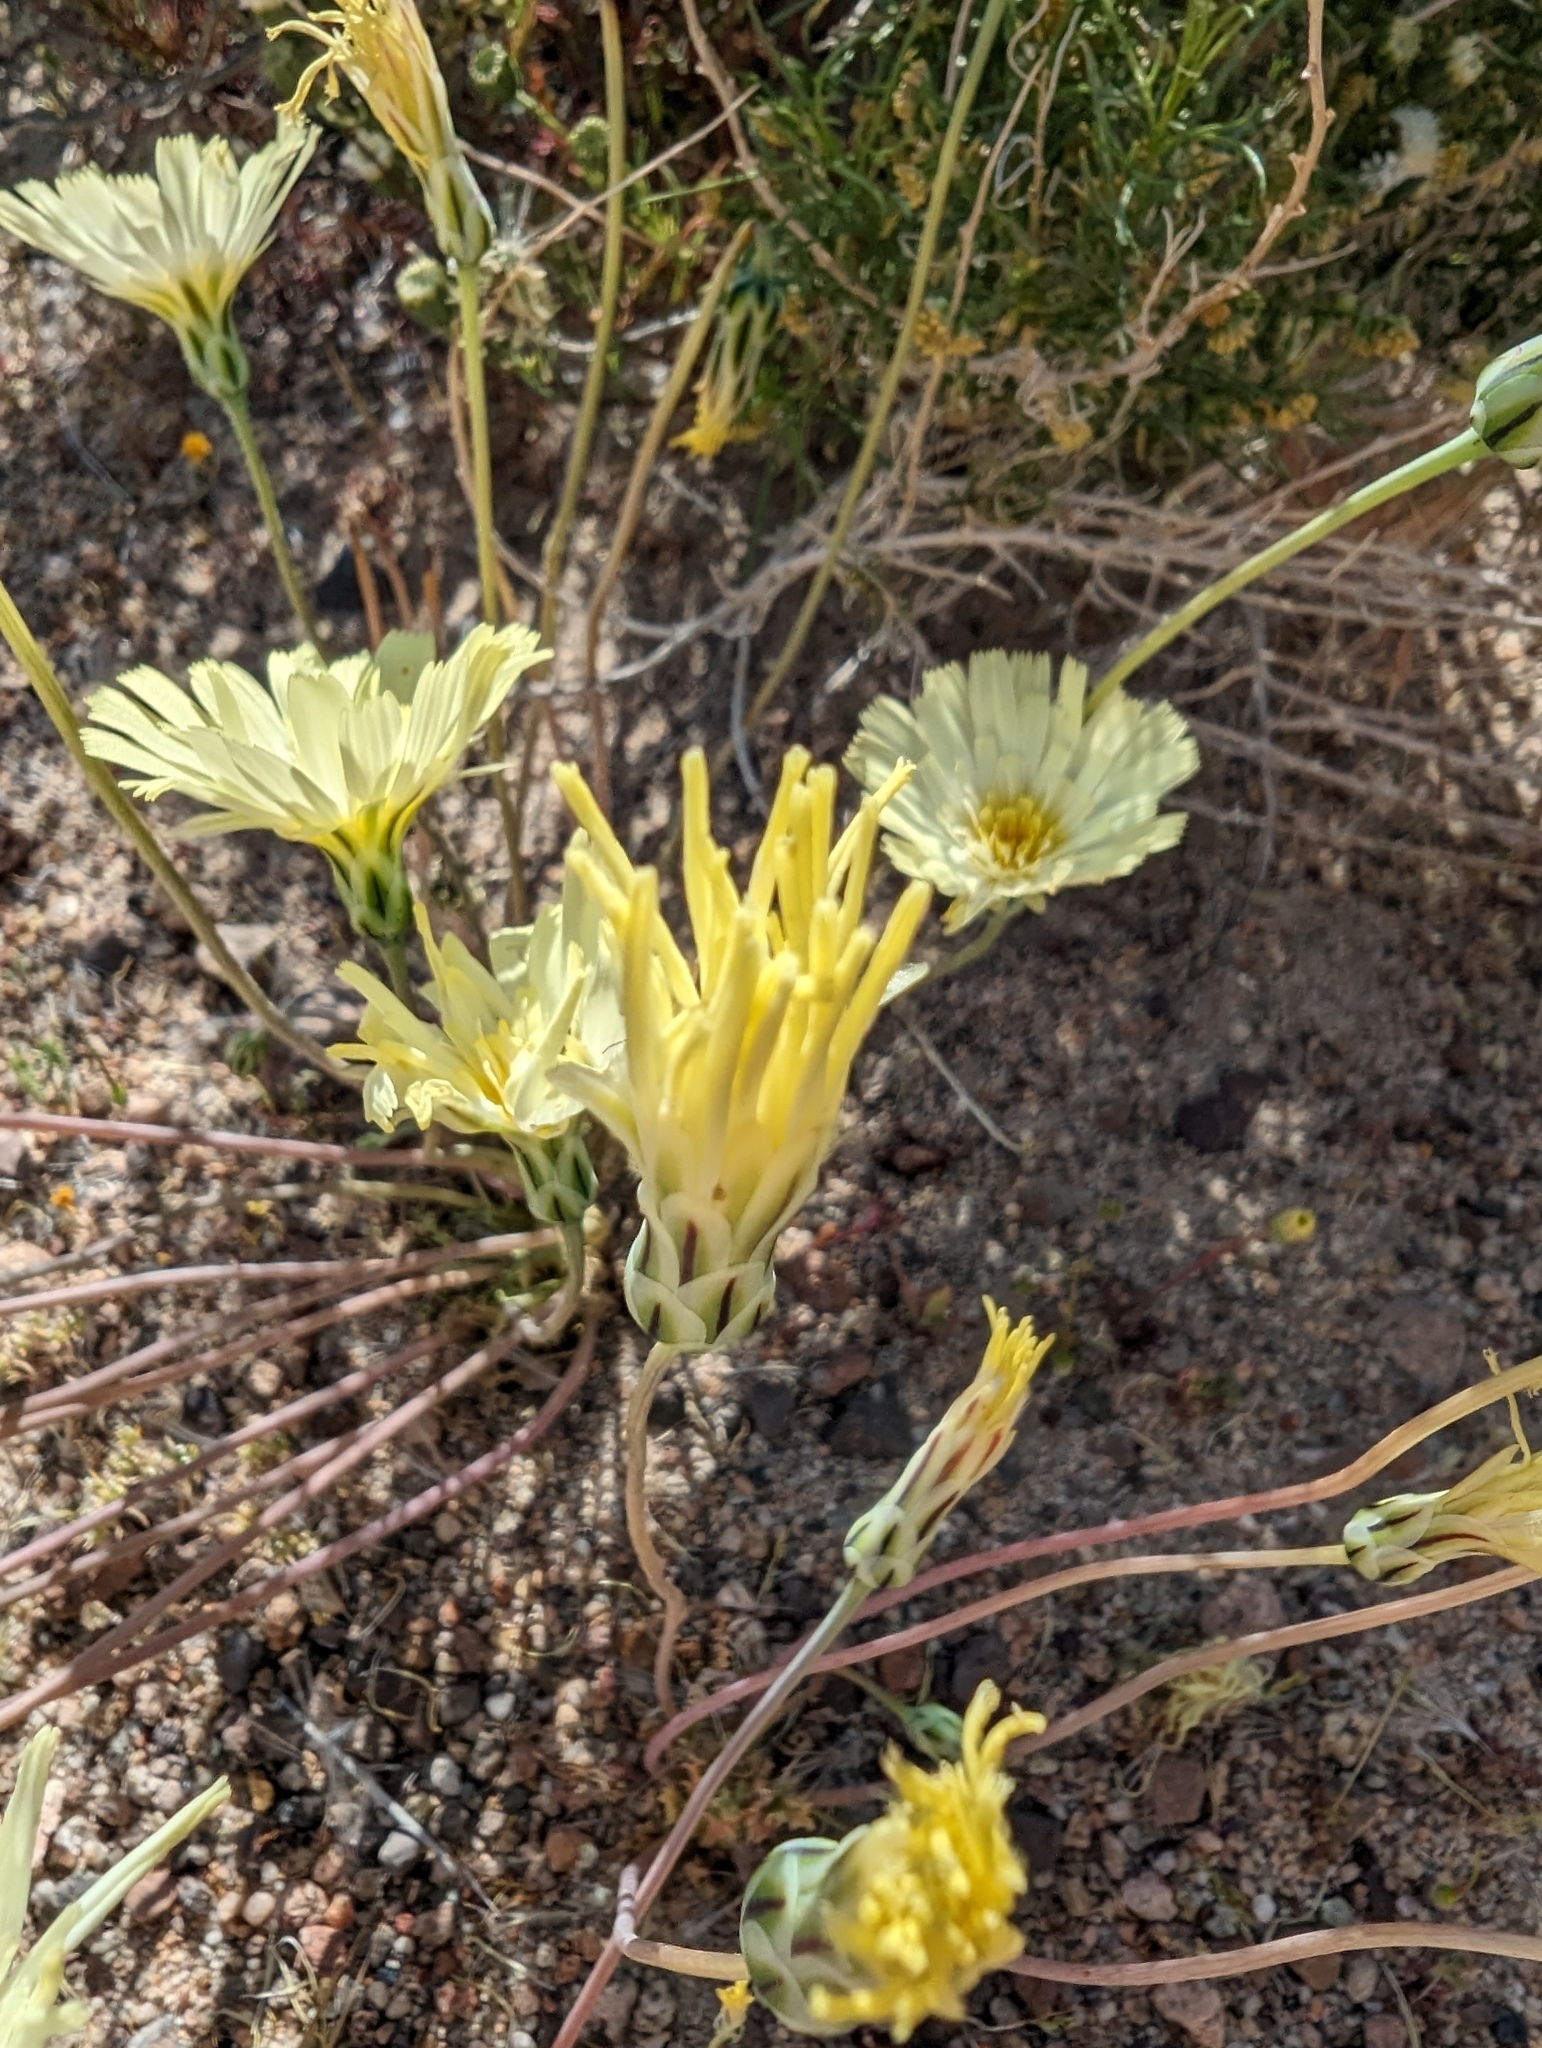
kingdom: Plantae
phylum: Tracheophyta
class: Magnoliopsida
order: Asterales
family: Asteraceae
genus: Anisocoma
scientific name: Anisocoma acaulis
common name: Scalebud
